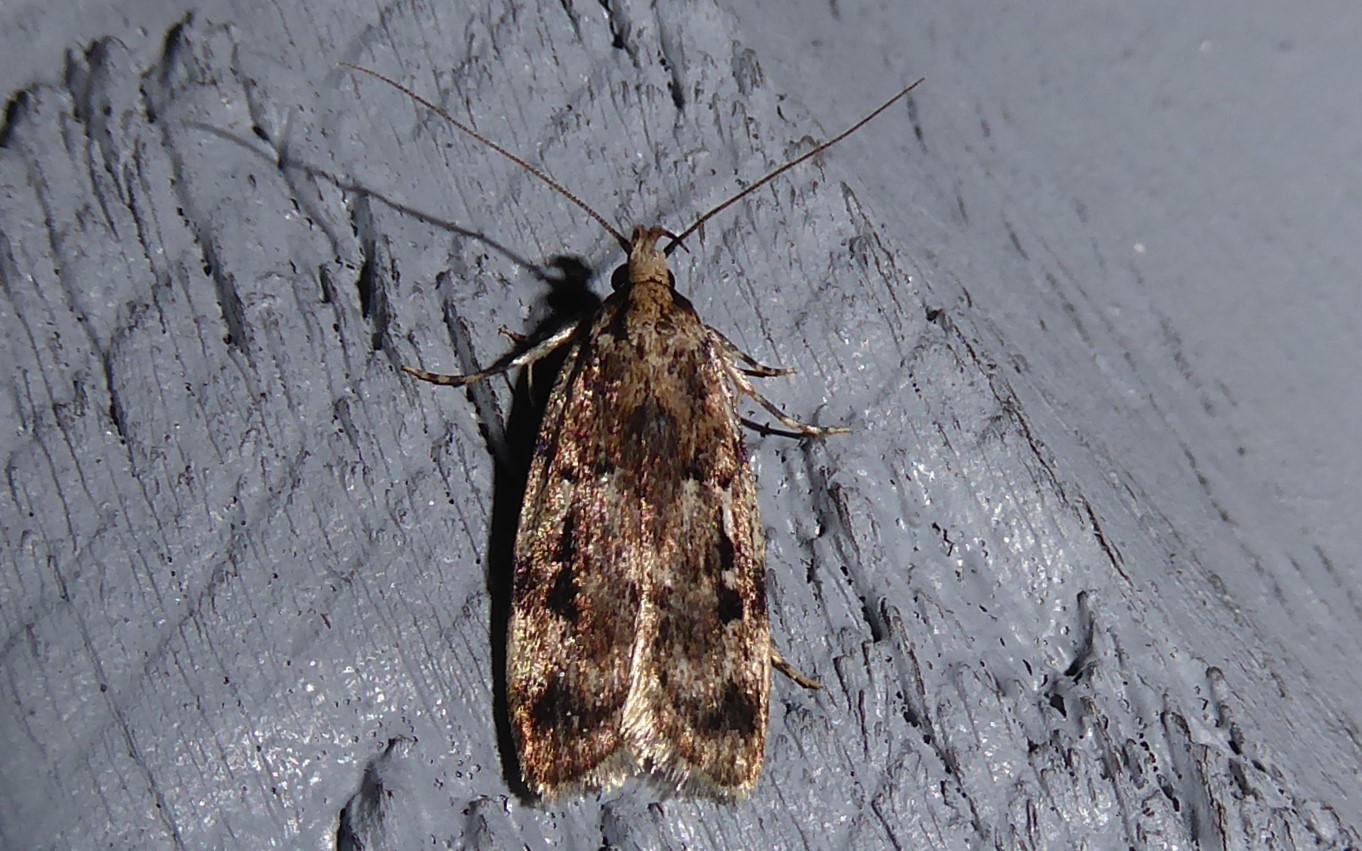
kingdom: Animalia
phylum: Arthropoda
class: Insecta
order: Lepidoptera
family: Oecophoridae
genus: Barea
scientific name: Barea exarcha
